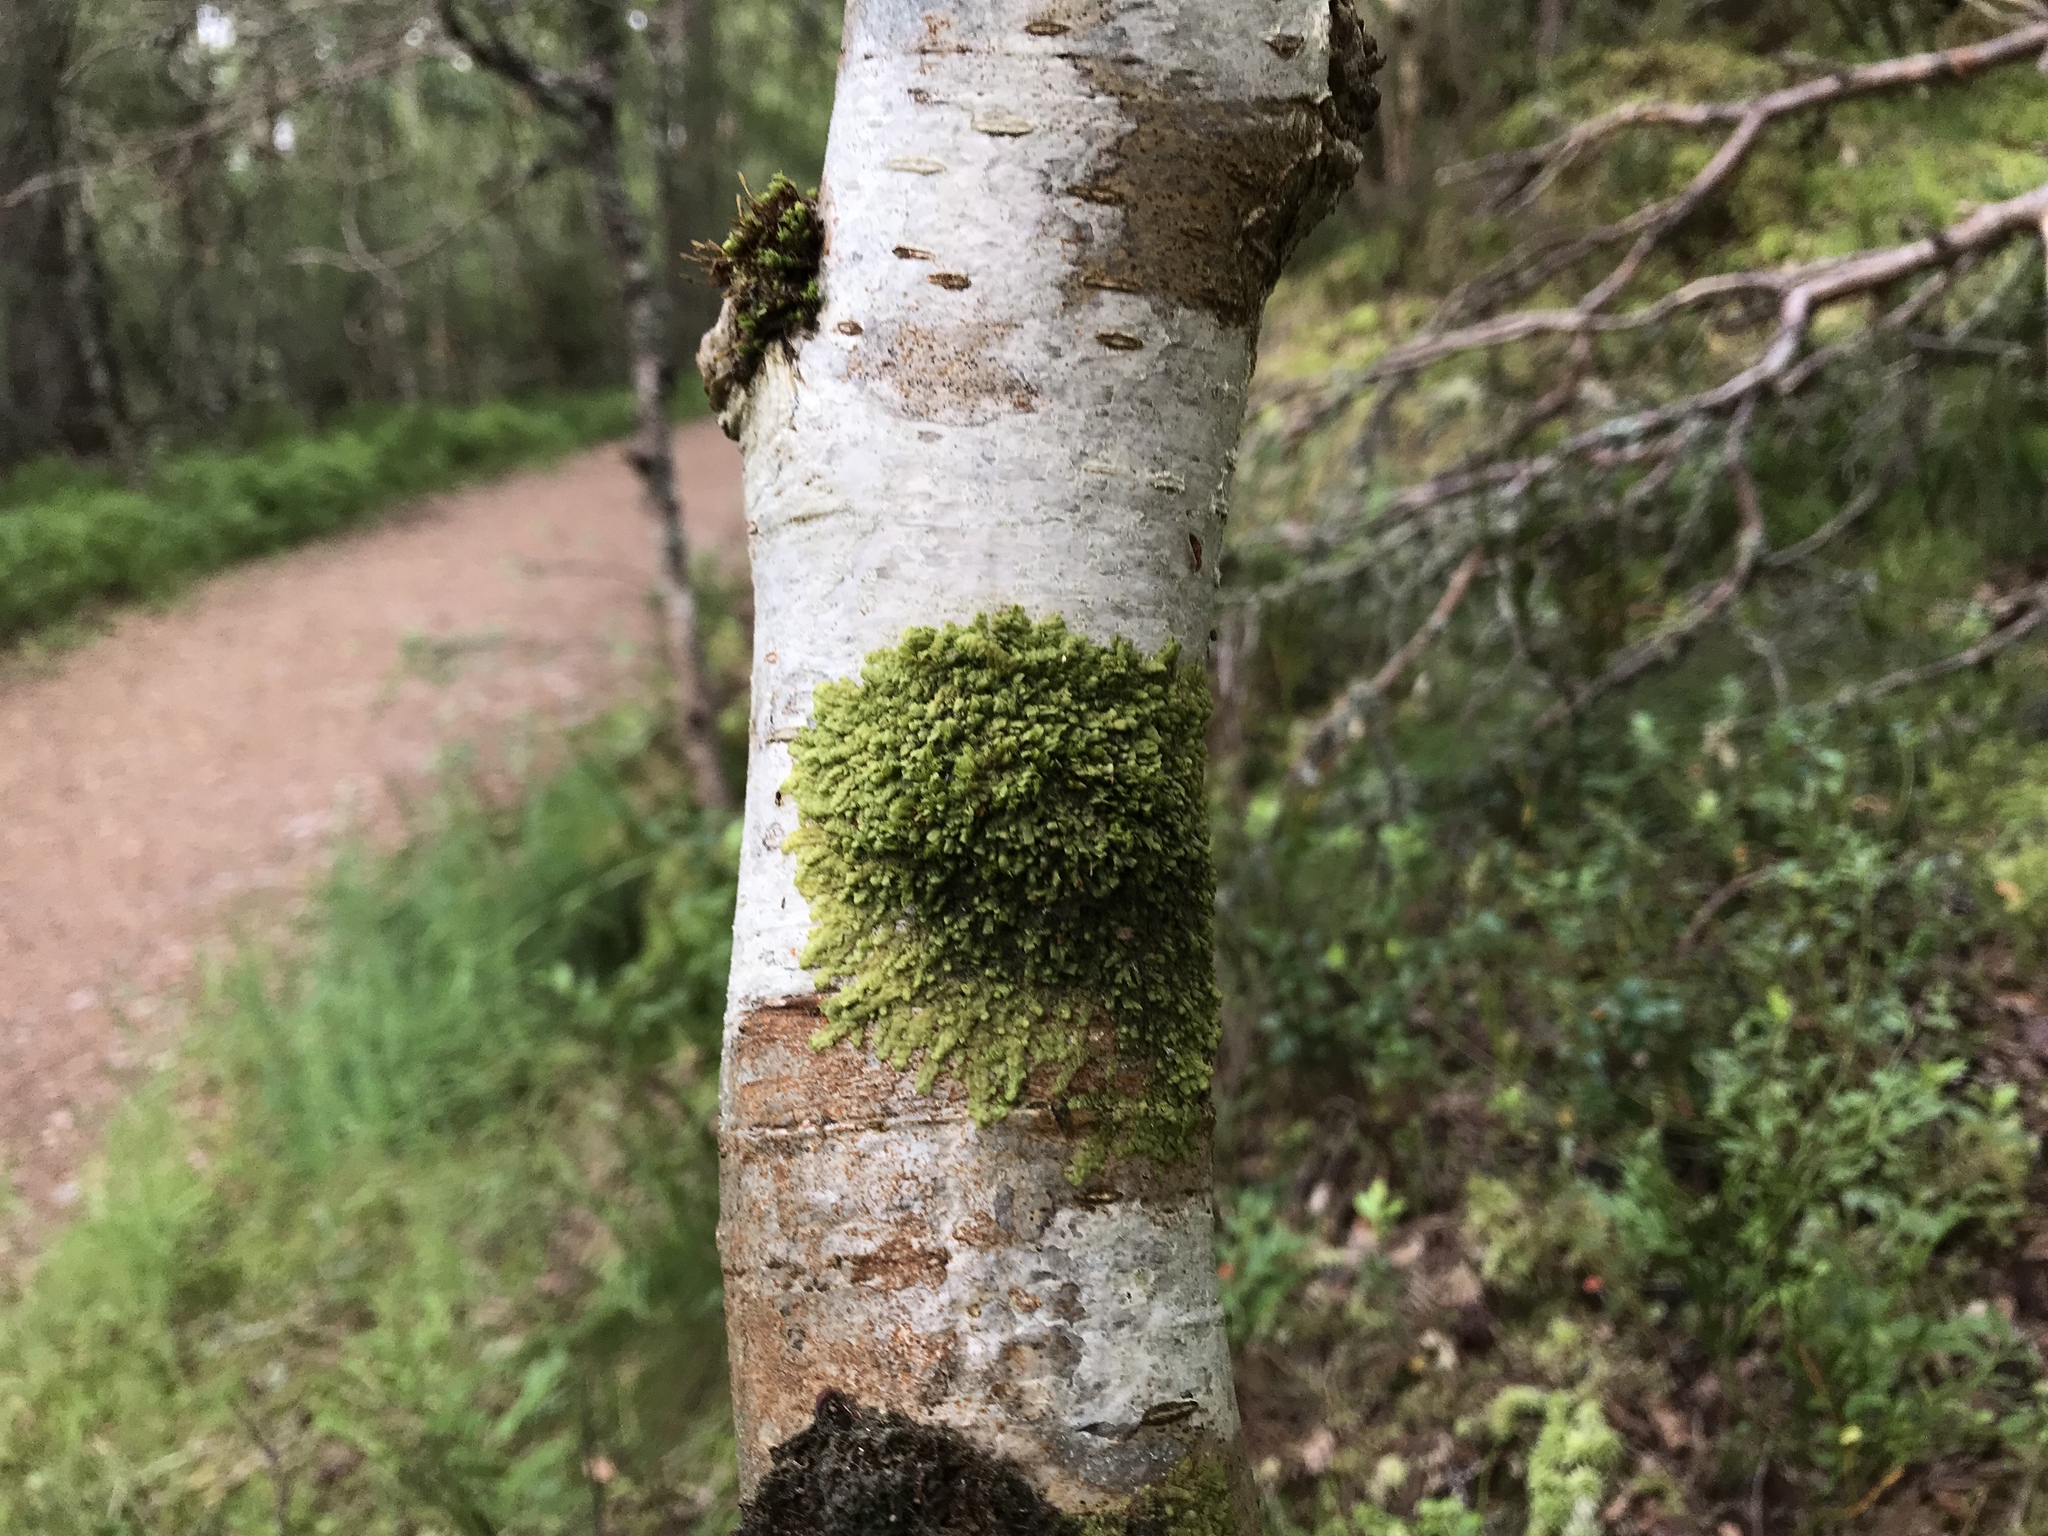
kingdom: Plantae
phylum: Marchantiophyta
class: Jungermanniopsida
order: Porellales
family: Radulaceae
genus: Radula
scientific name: Radula complanata
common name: Flat-leaved scalewort
